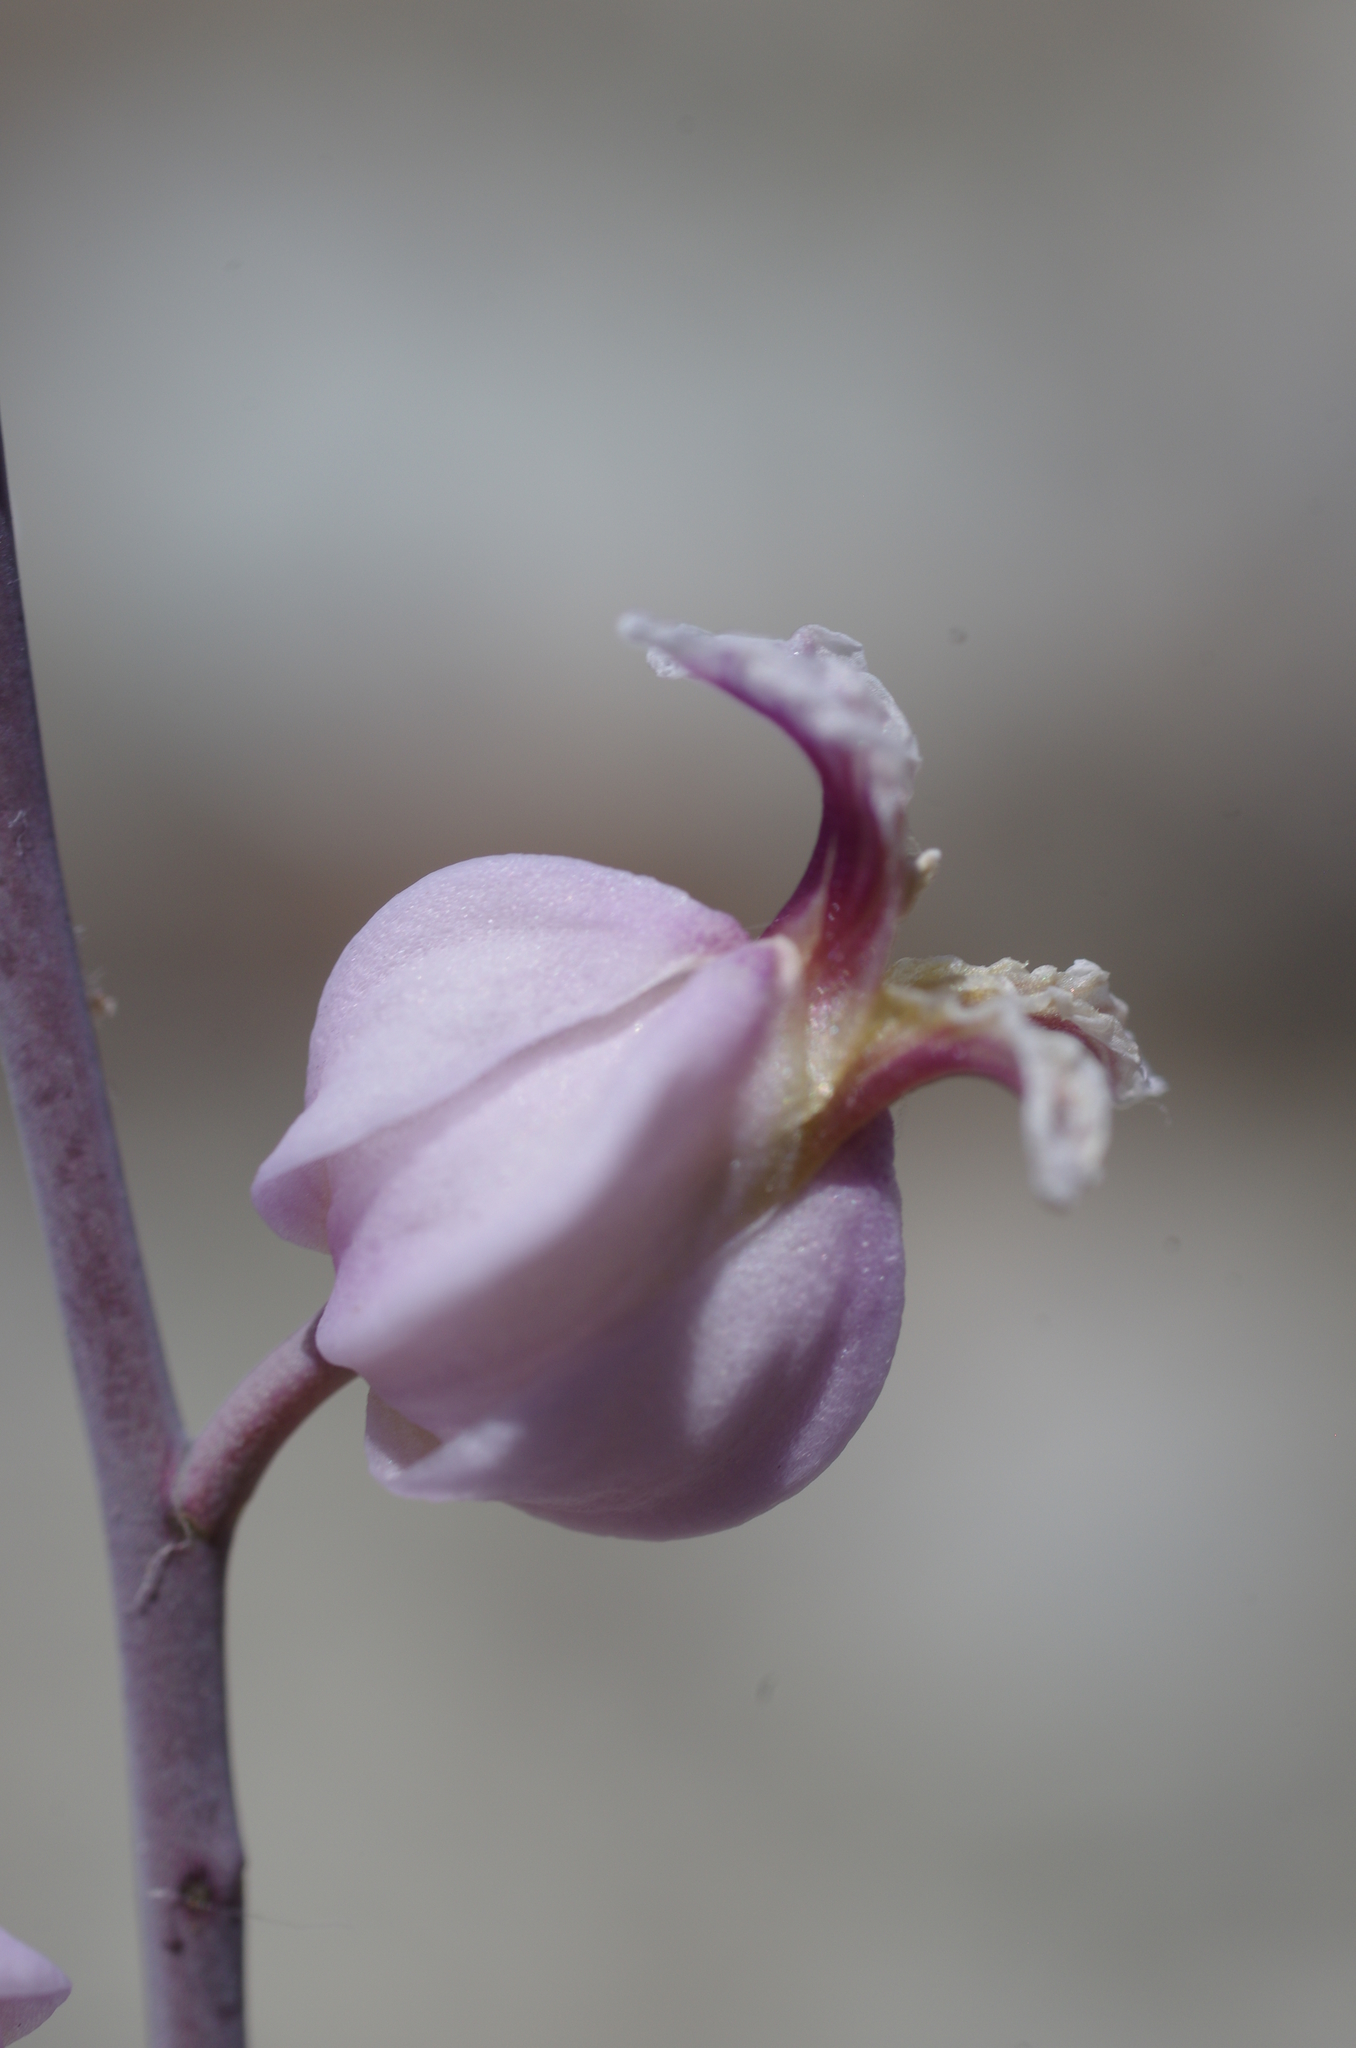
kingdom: Plantae
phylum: Tracheophyta
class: Magnoliopsida
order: Brassicales
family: Brassicaceae
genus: Streptanthus
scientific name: Streptanthus glandulosus
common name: Jewel-flower
